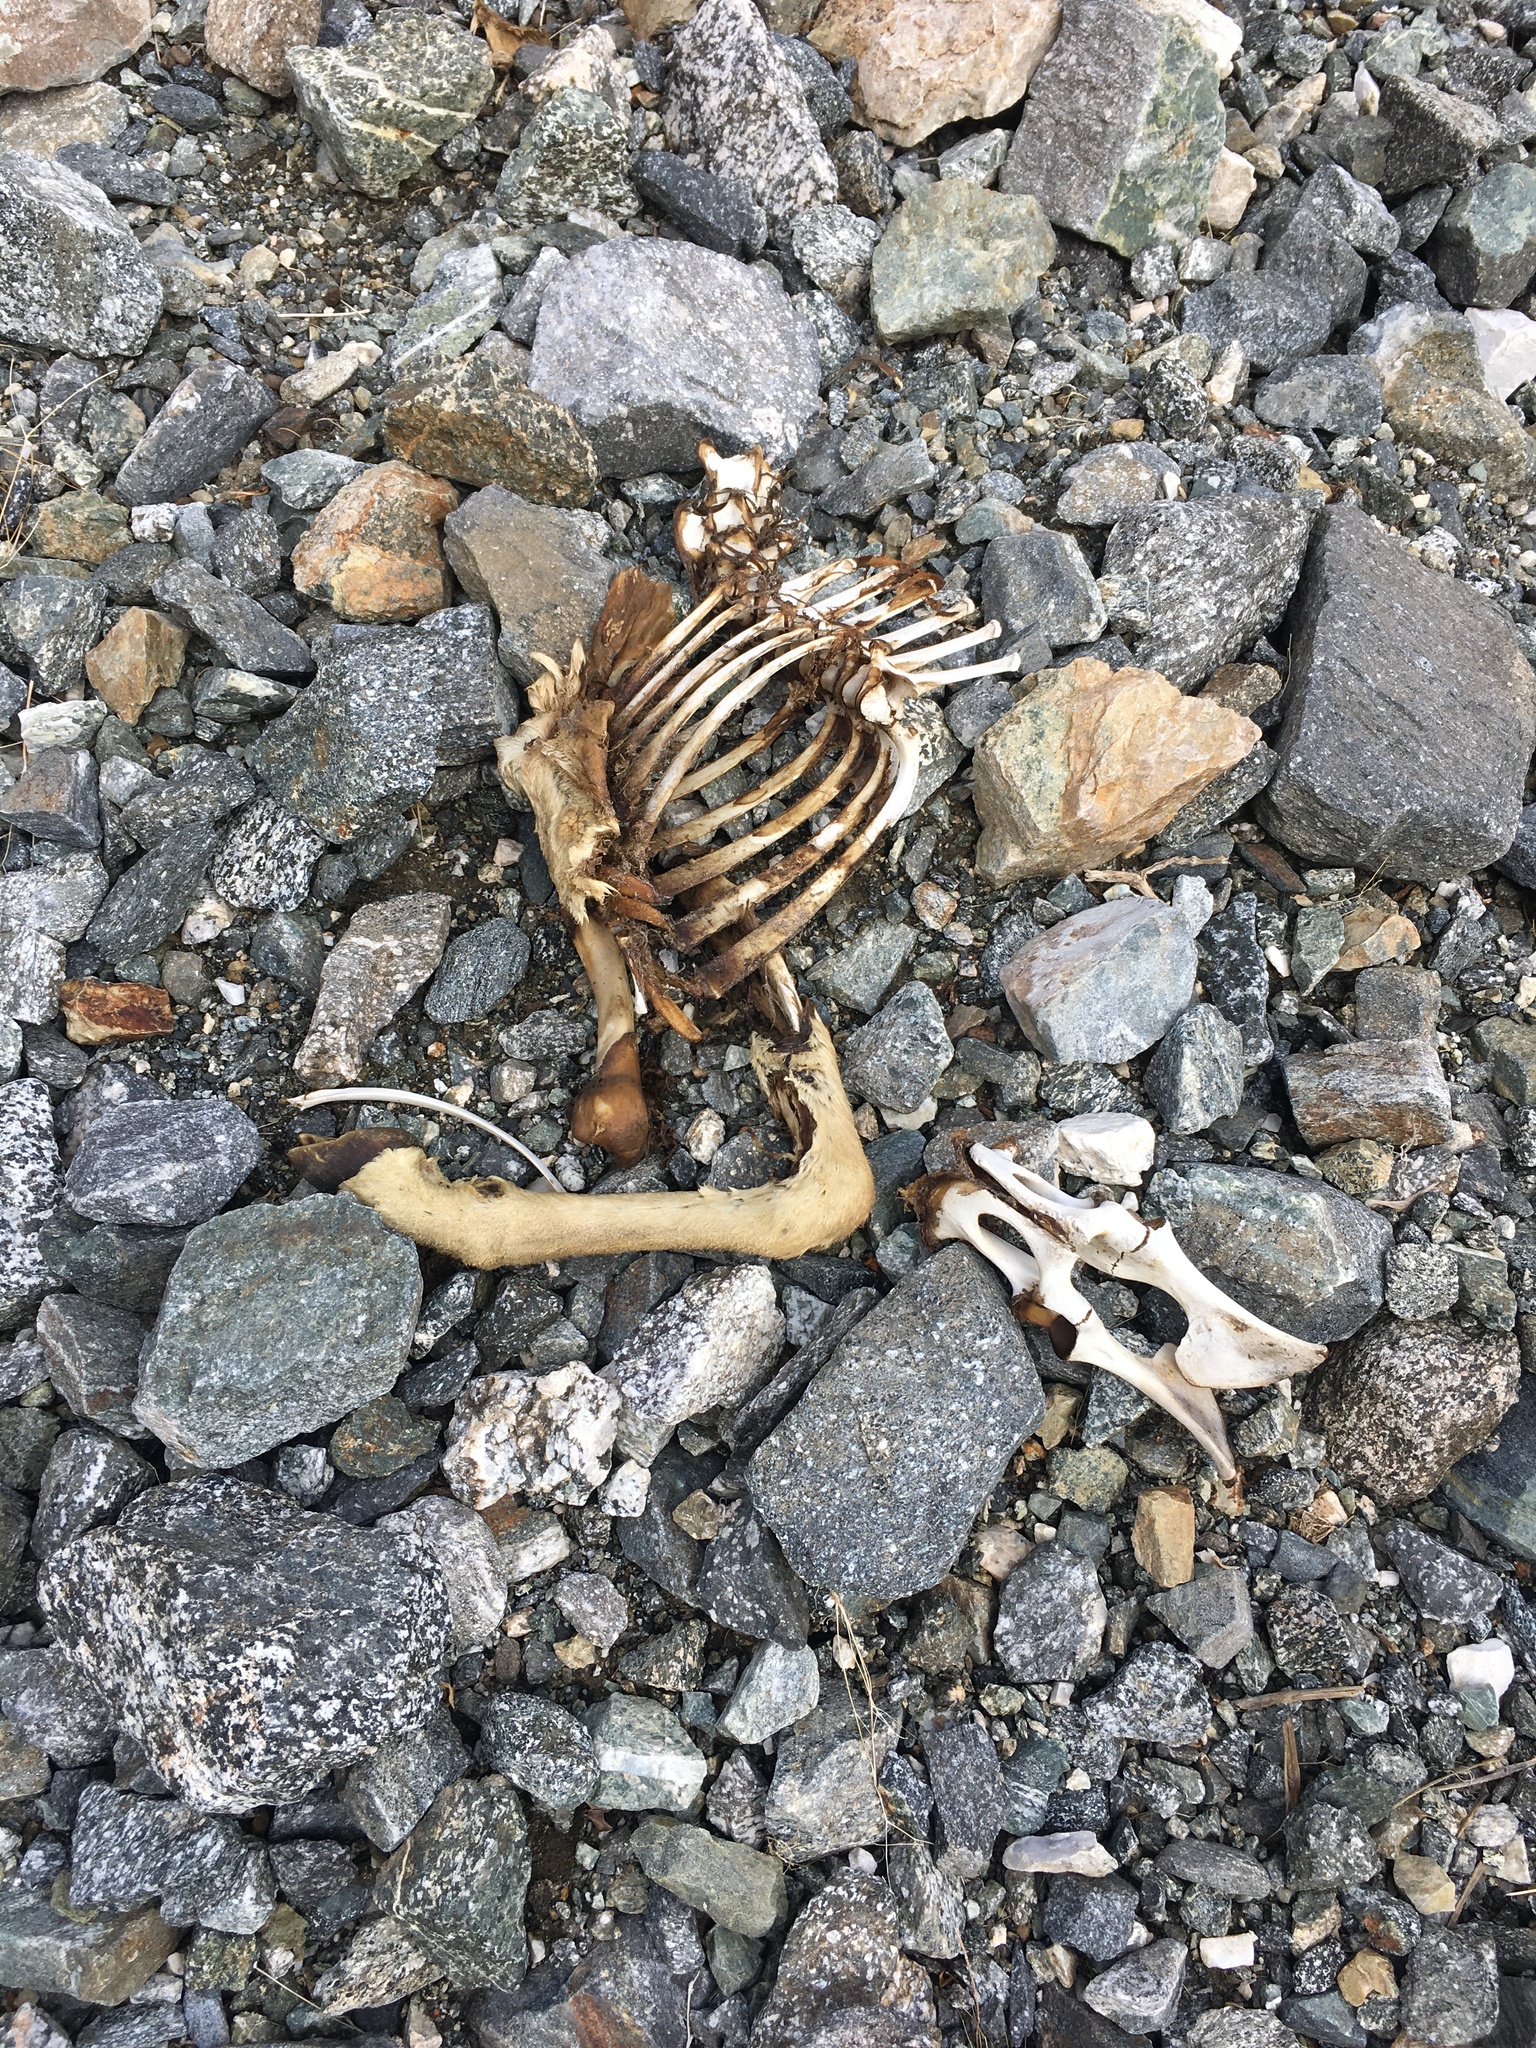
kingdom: Animalia
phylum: Chordata
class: Mammalia
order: Artiodactyla
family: Bovidae
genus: Ovis
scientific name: Ovis canadensis
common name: Bighorn sheep
